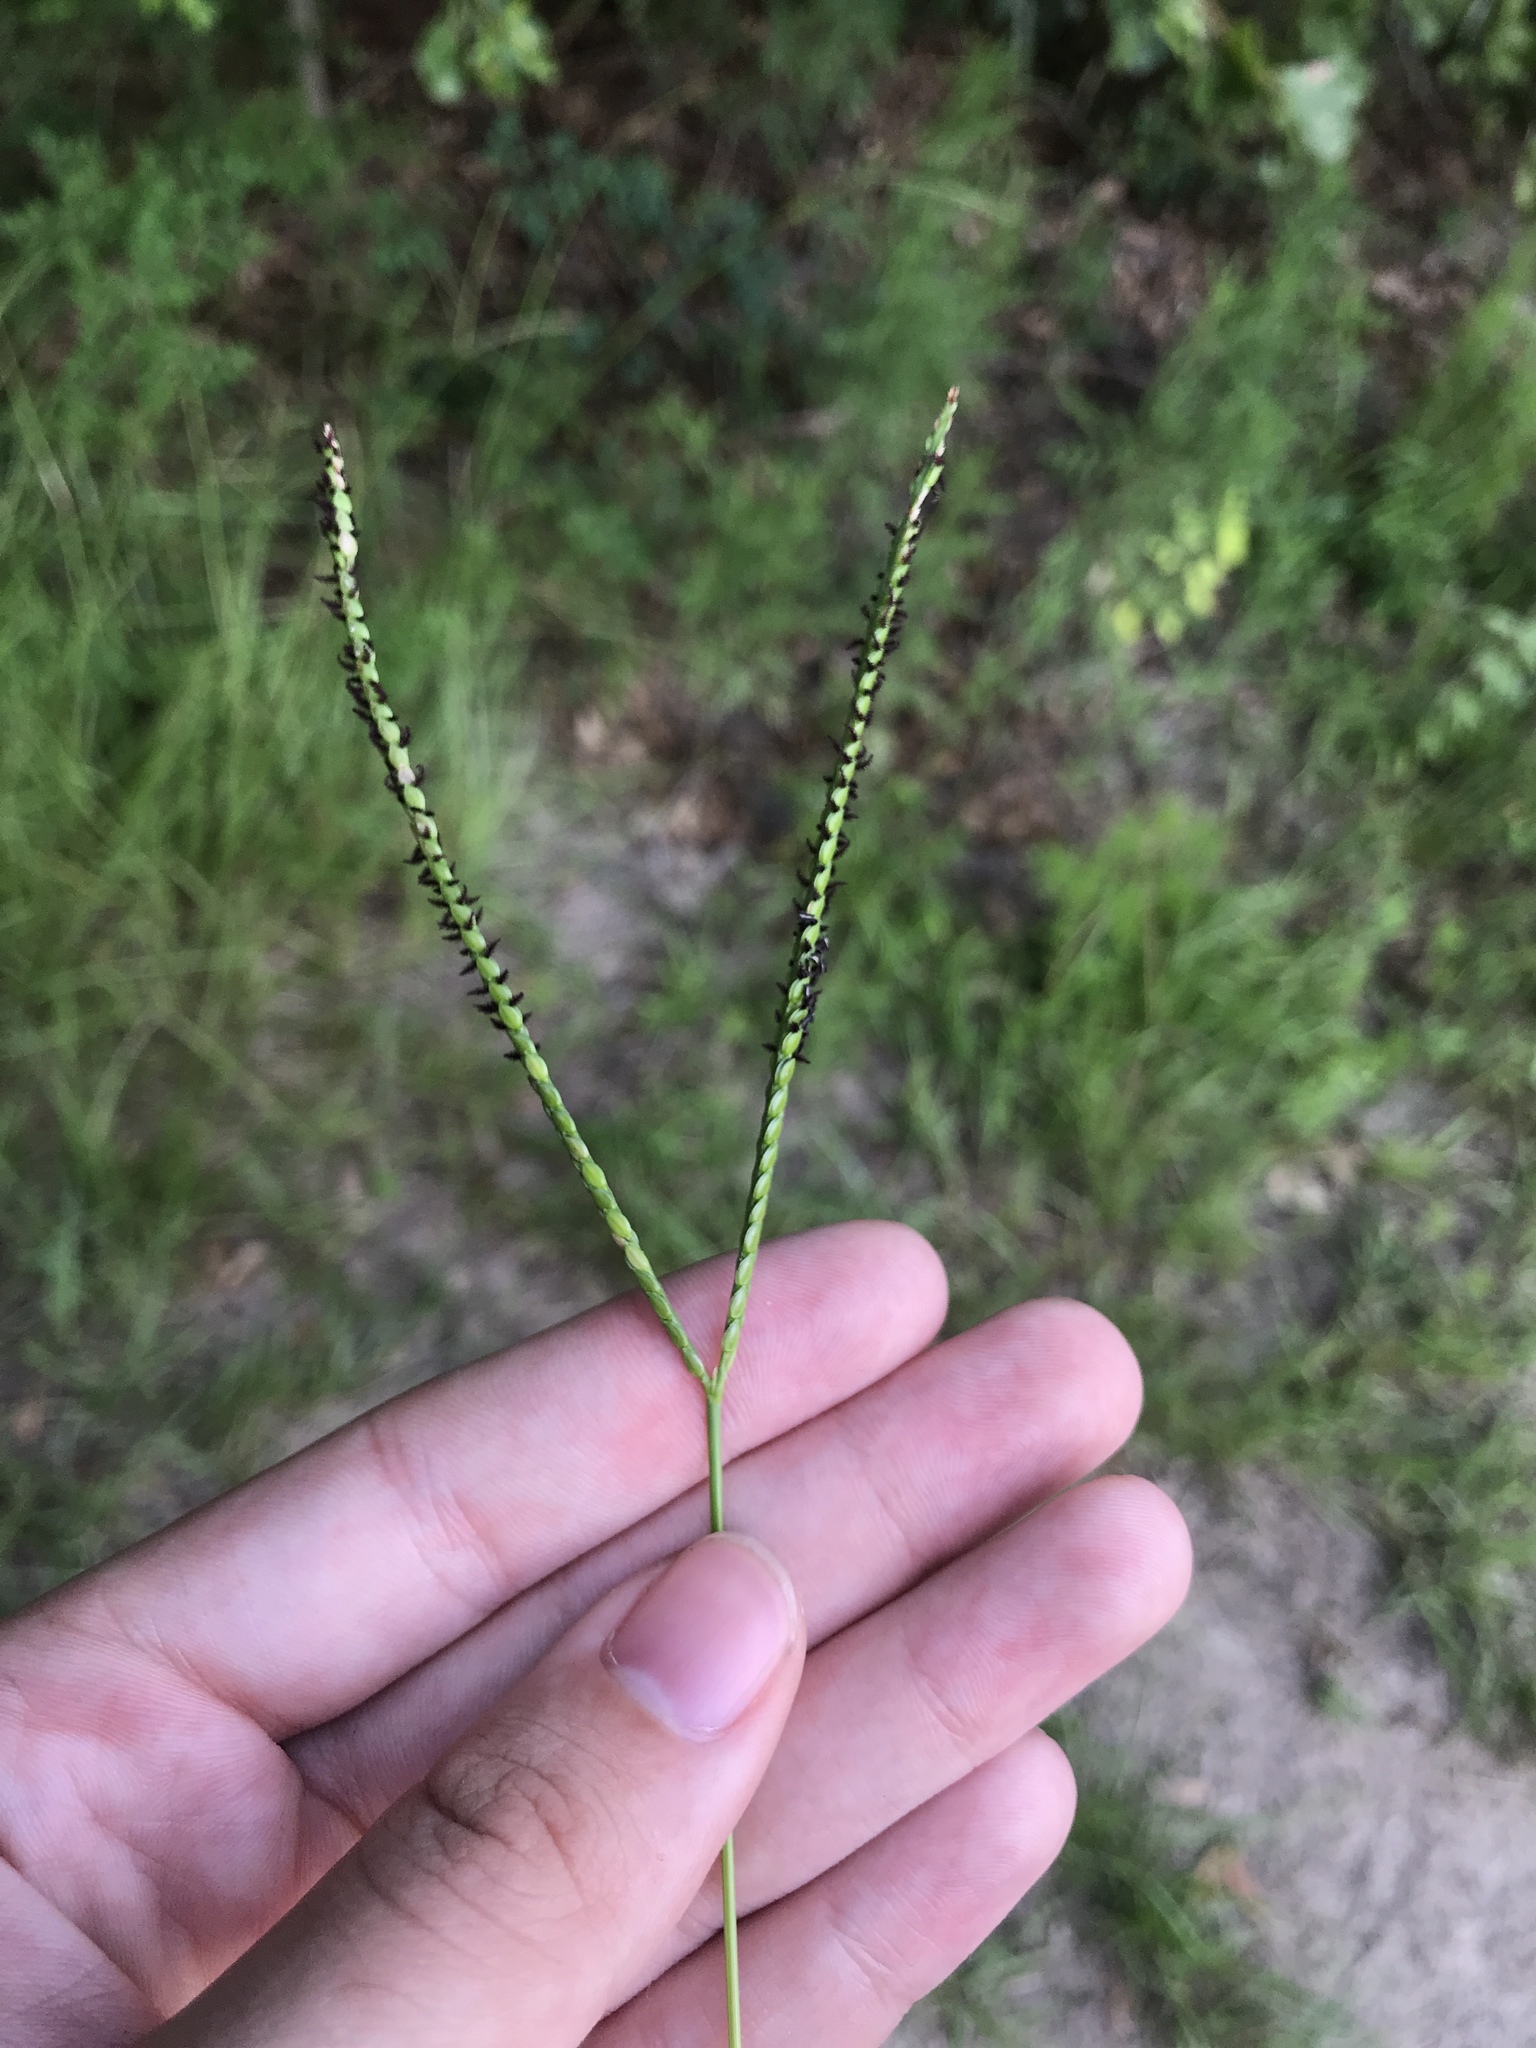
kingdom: Plantae
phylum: Tracheophyta
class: Liliopsida
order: Poales
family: Poaceae
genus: Paspalum
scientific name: Paspalum notatum
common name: Bahiagrass
